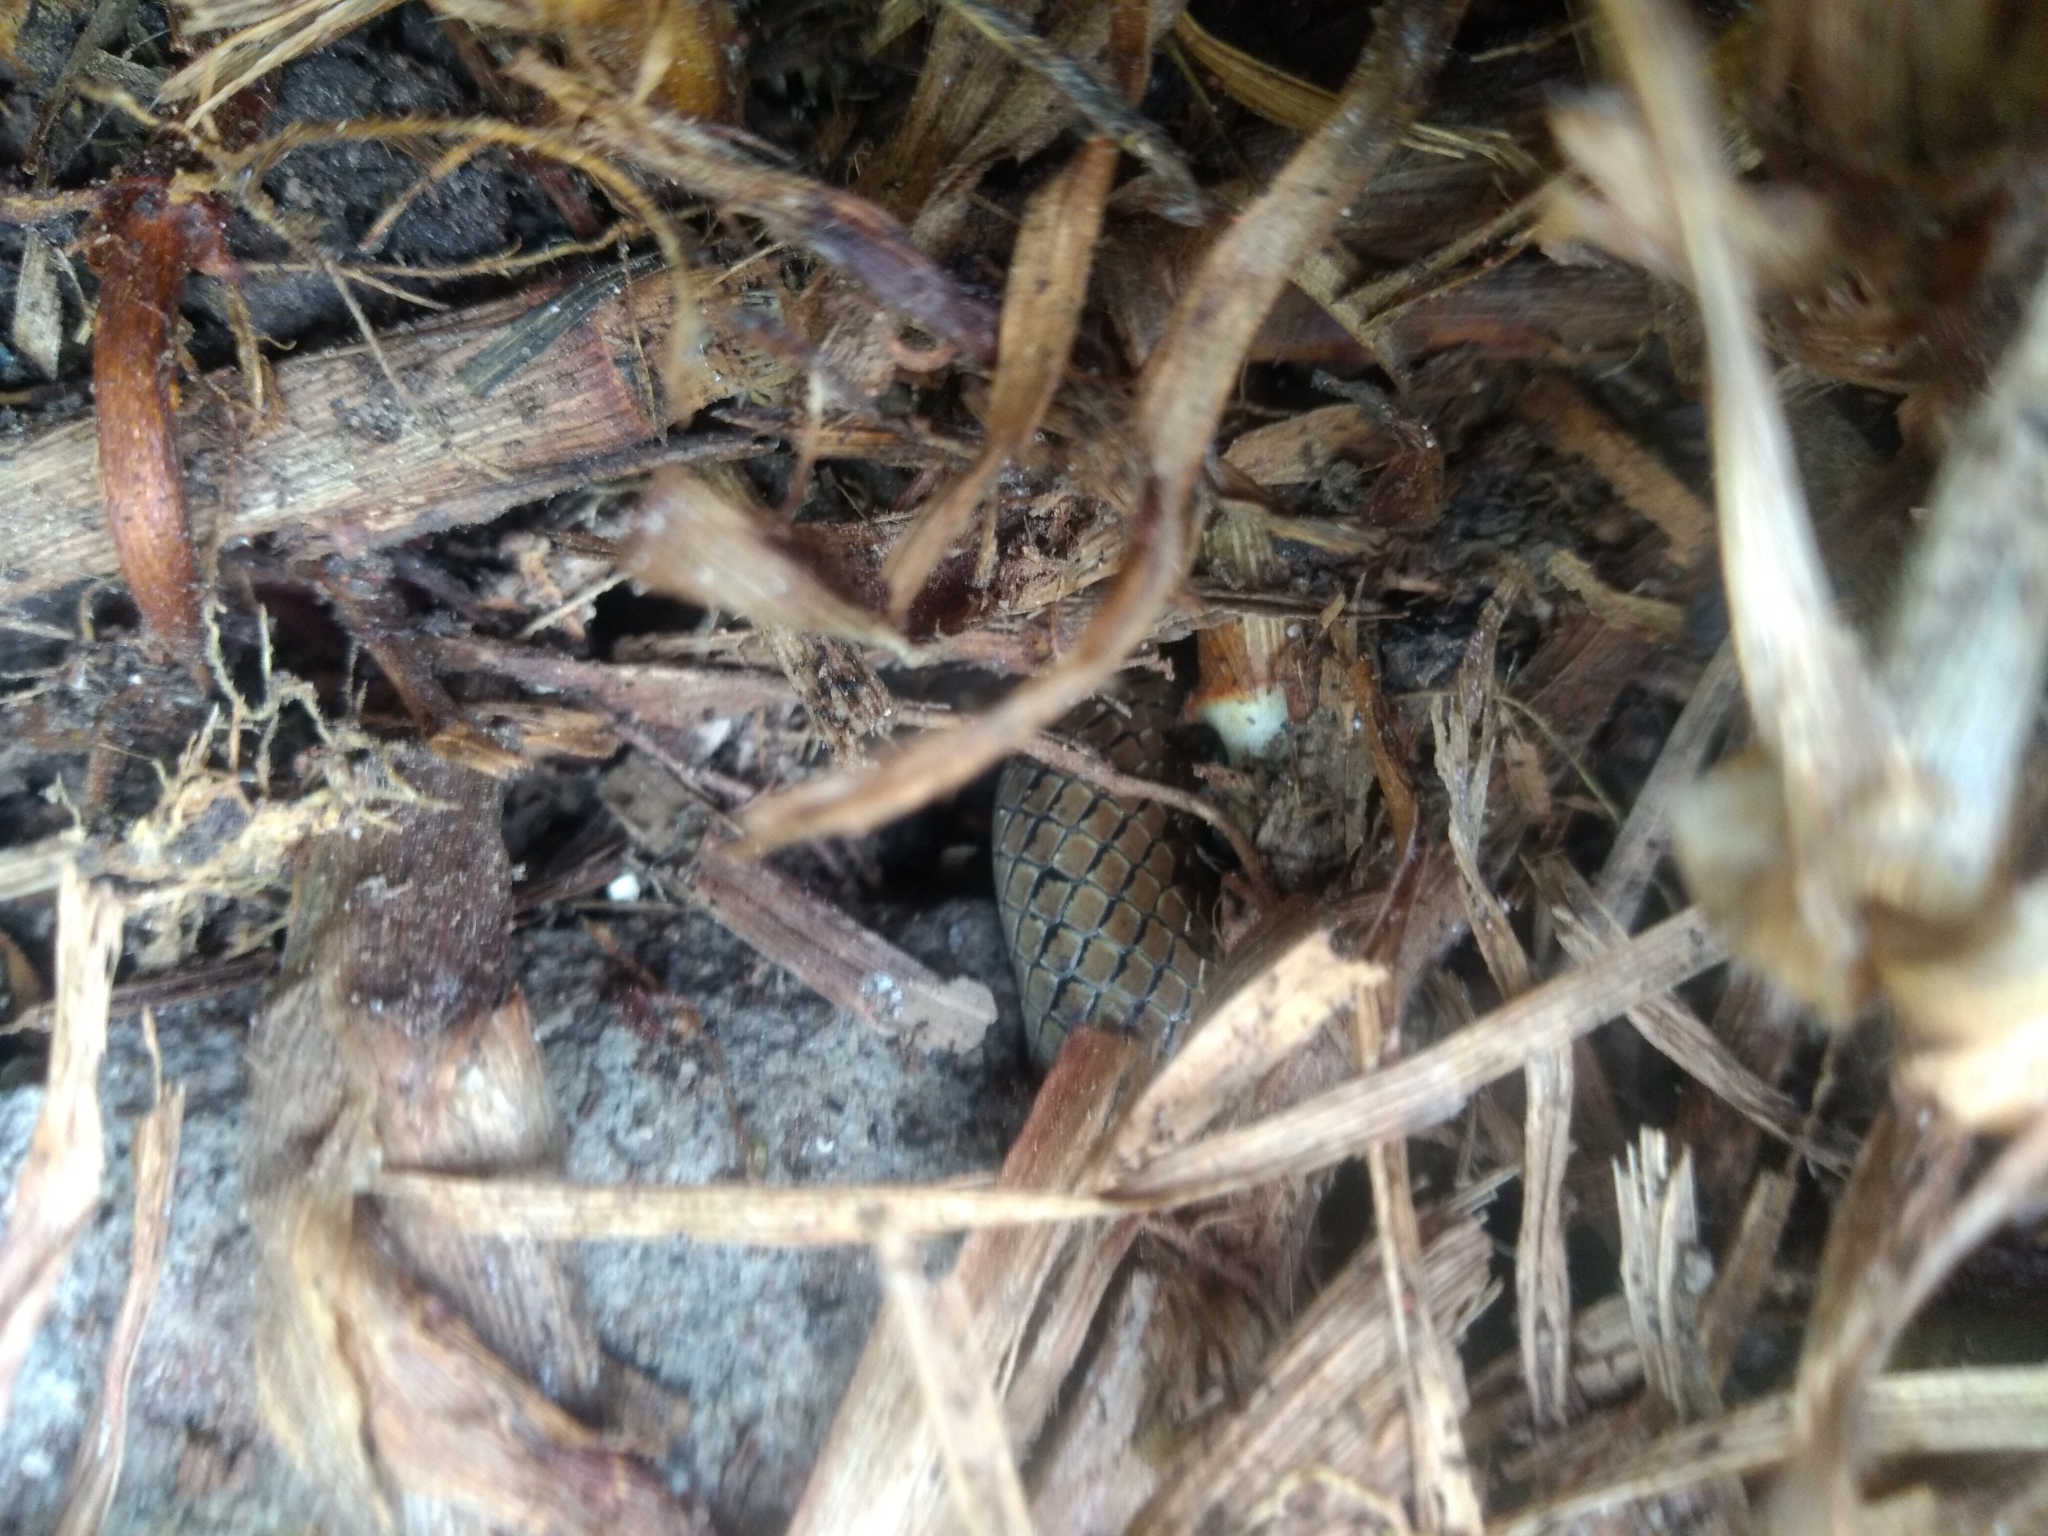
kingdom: Animalia
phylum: Chordata
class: Squamata
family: Colubridae
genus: Conopsis
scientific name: Conopsis lineata
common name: Lined tolucan earthsnake
